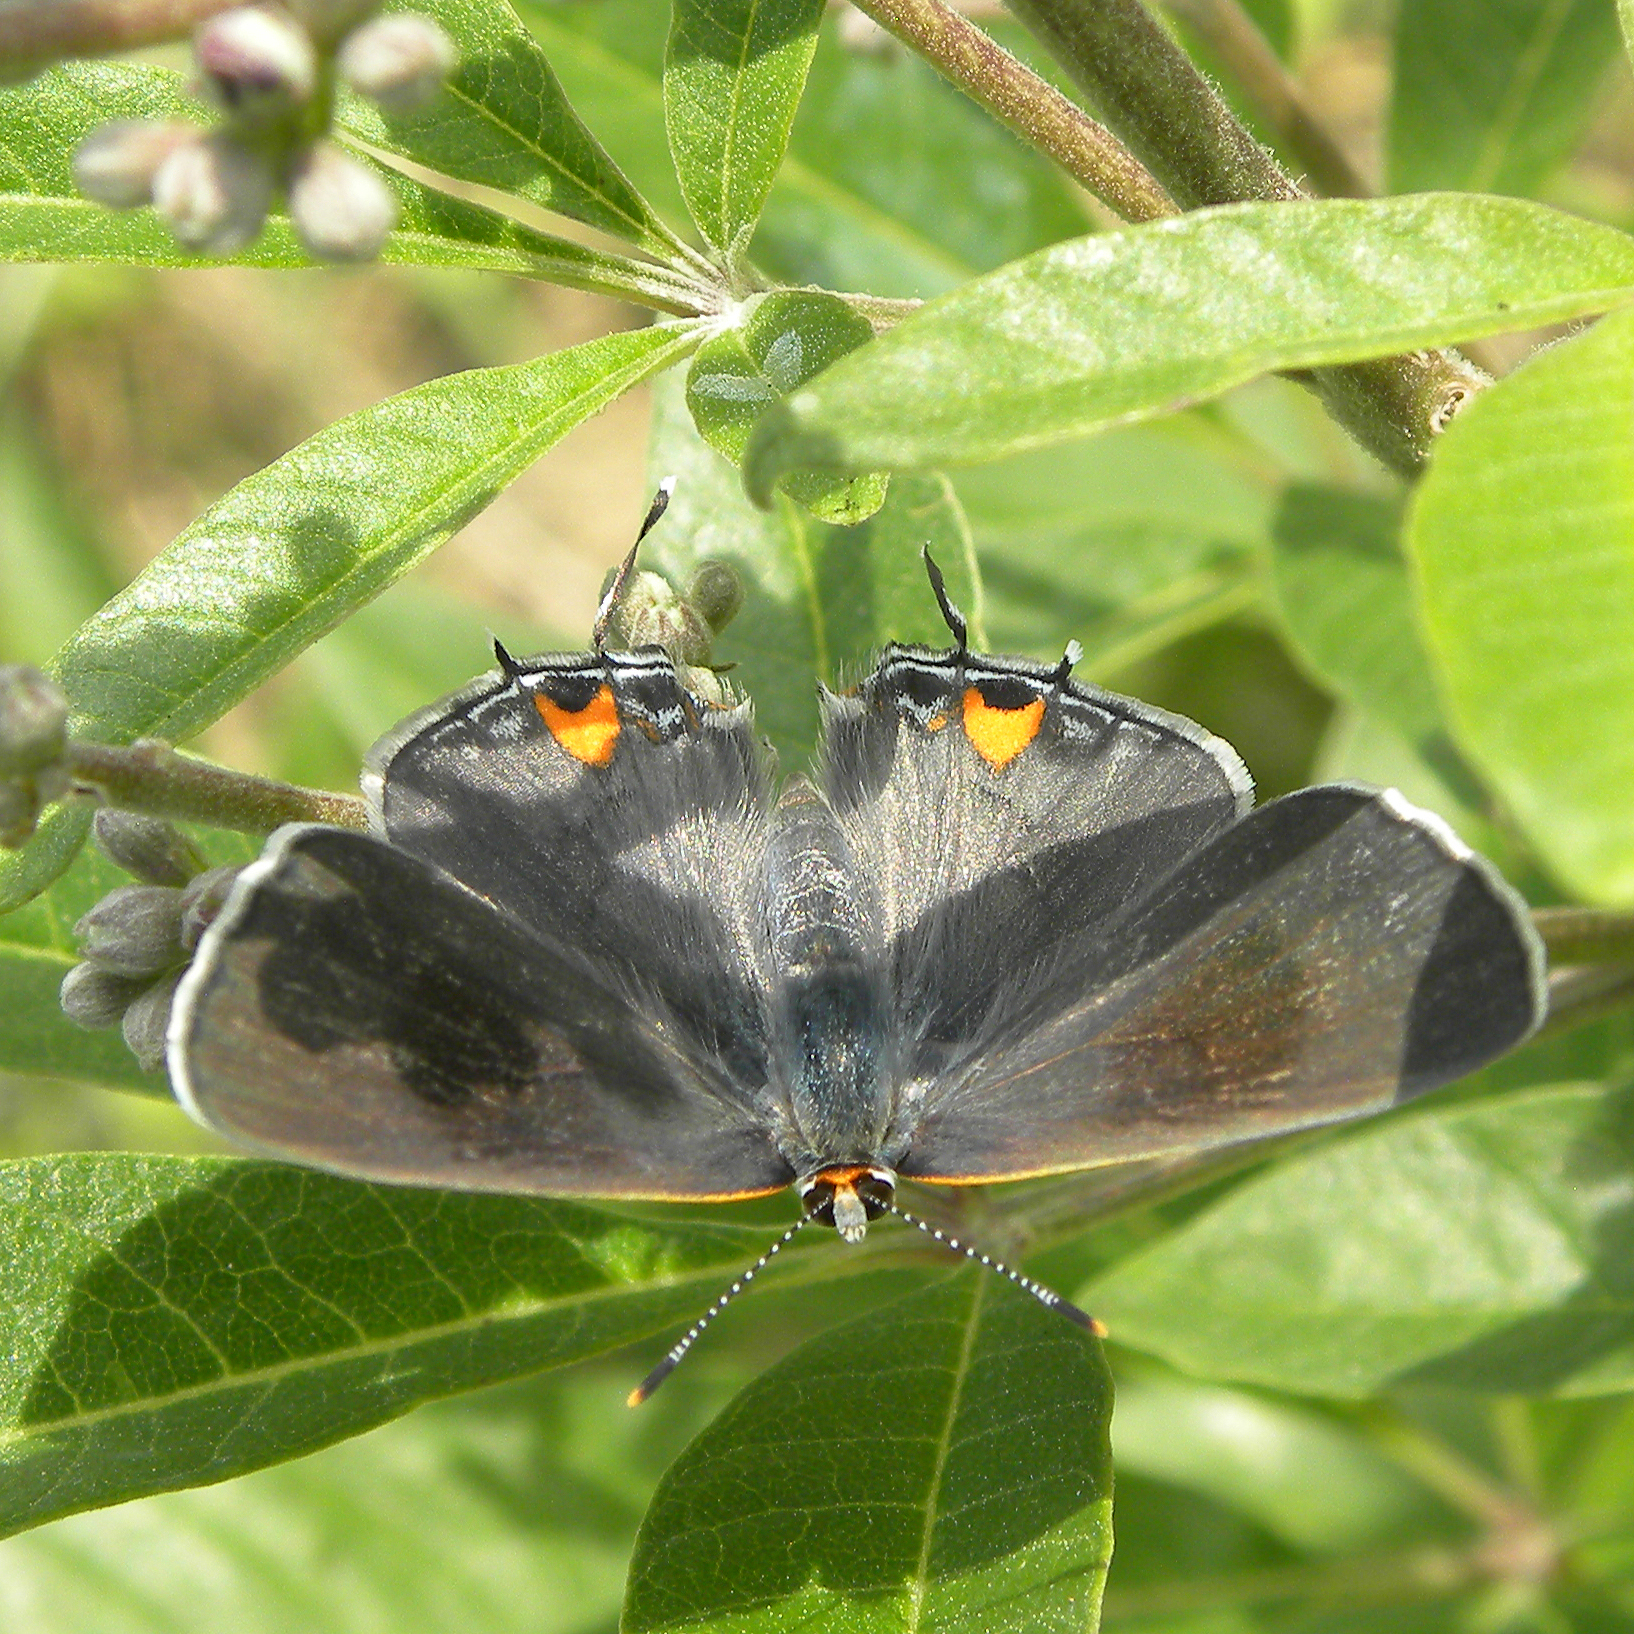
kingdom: Animalia
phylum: Arthropoda
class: Insecta
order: Lepidoptera
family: Lycaenidae
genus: Strymon
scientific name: Strymon melinus
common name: Gray hairstreak
